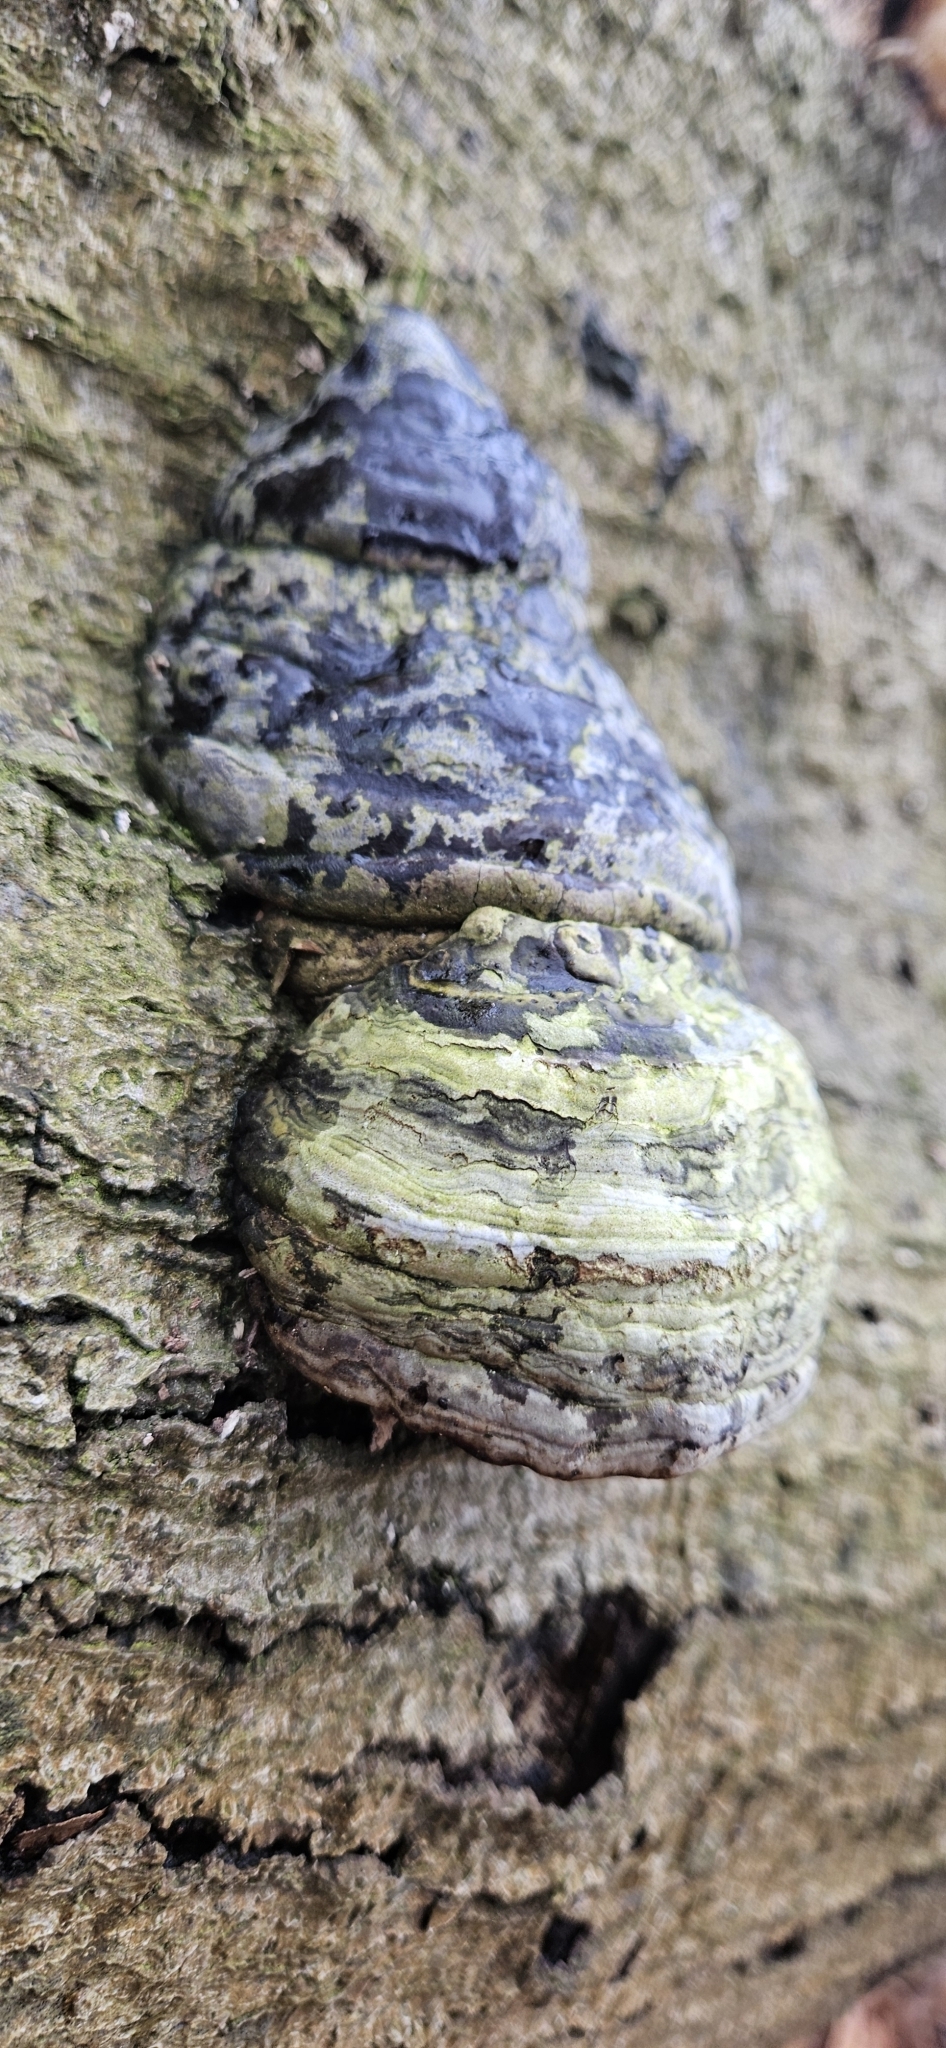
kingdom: Fungi
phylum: Basidiomycota
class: Agaricomycetes
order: Polyporales
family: Polyporaceae
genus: Fomes
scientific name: Fomes fomentarius
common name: Hoof fungus
